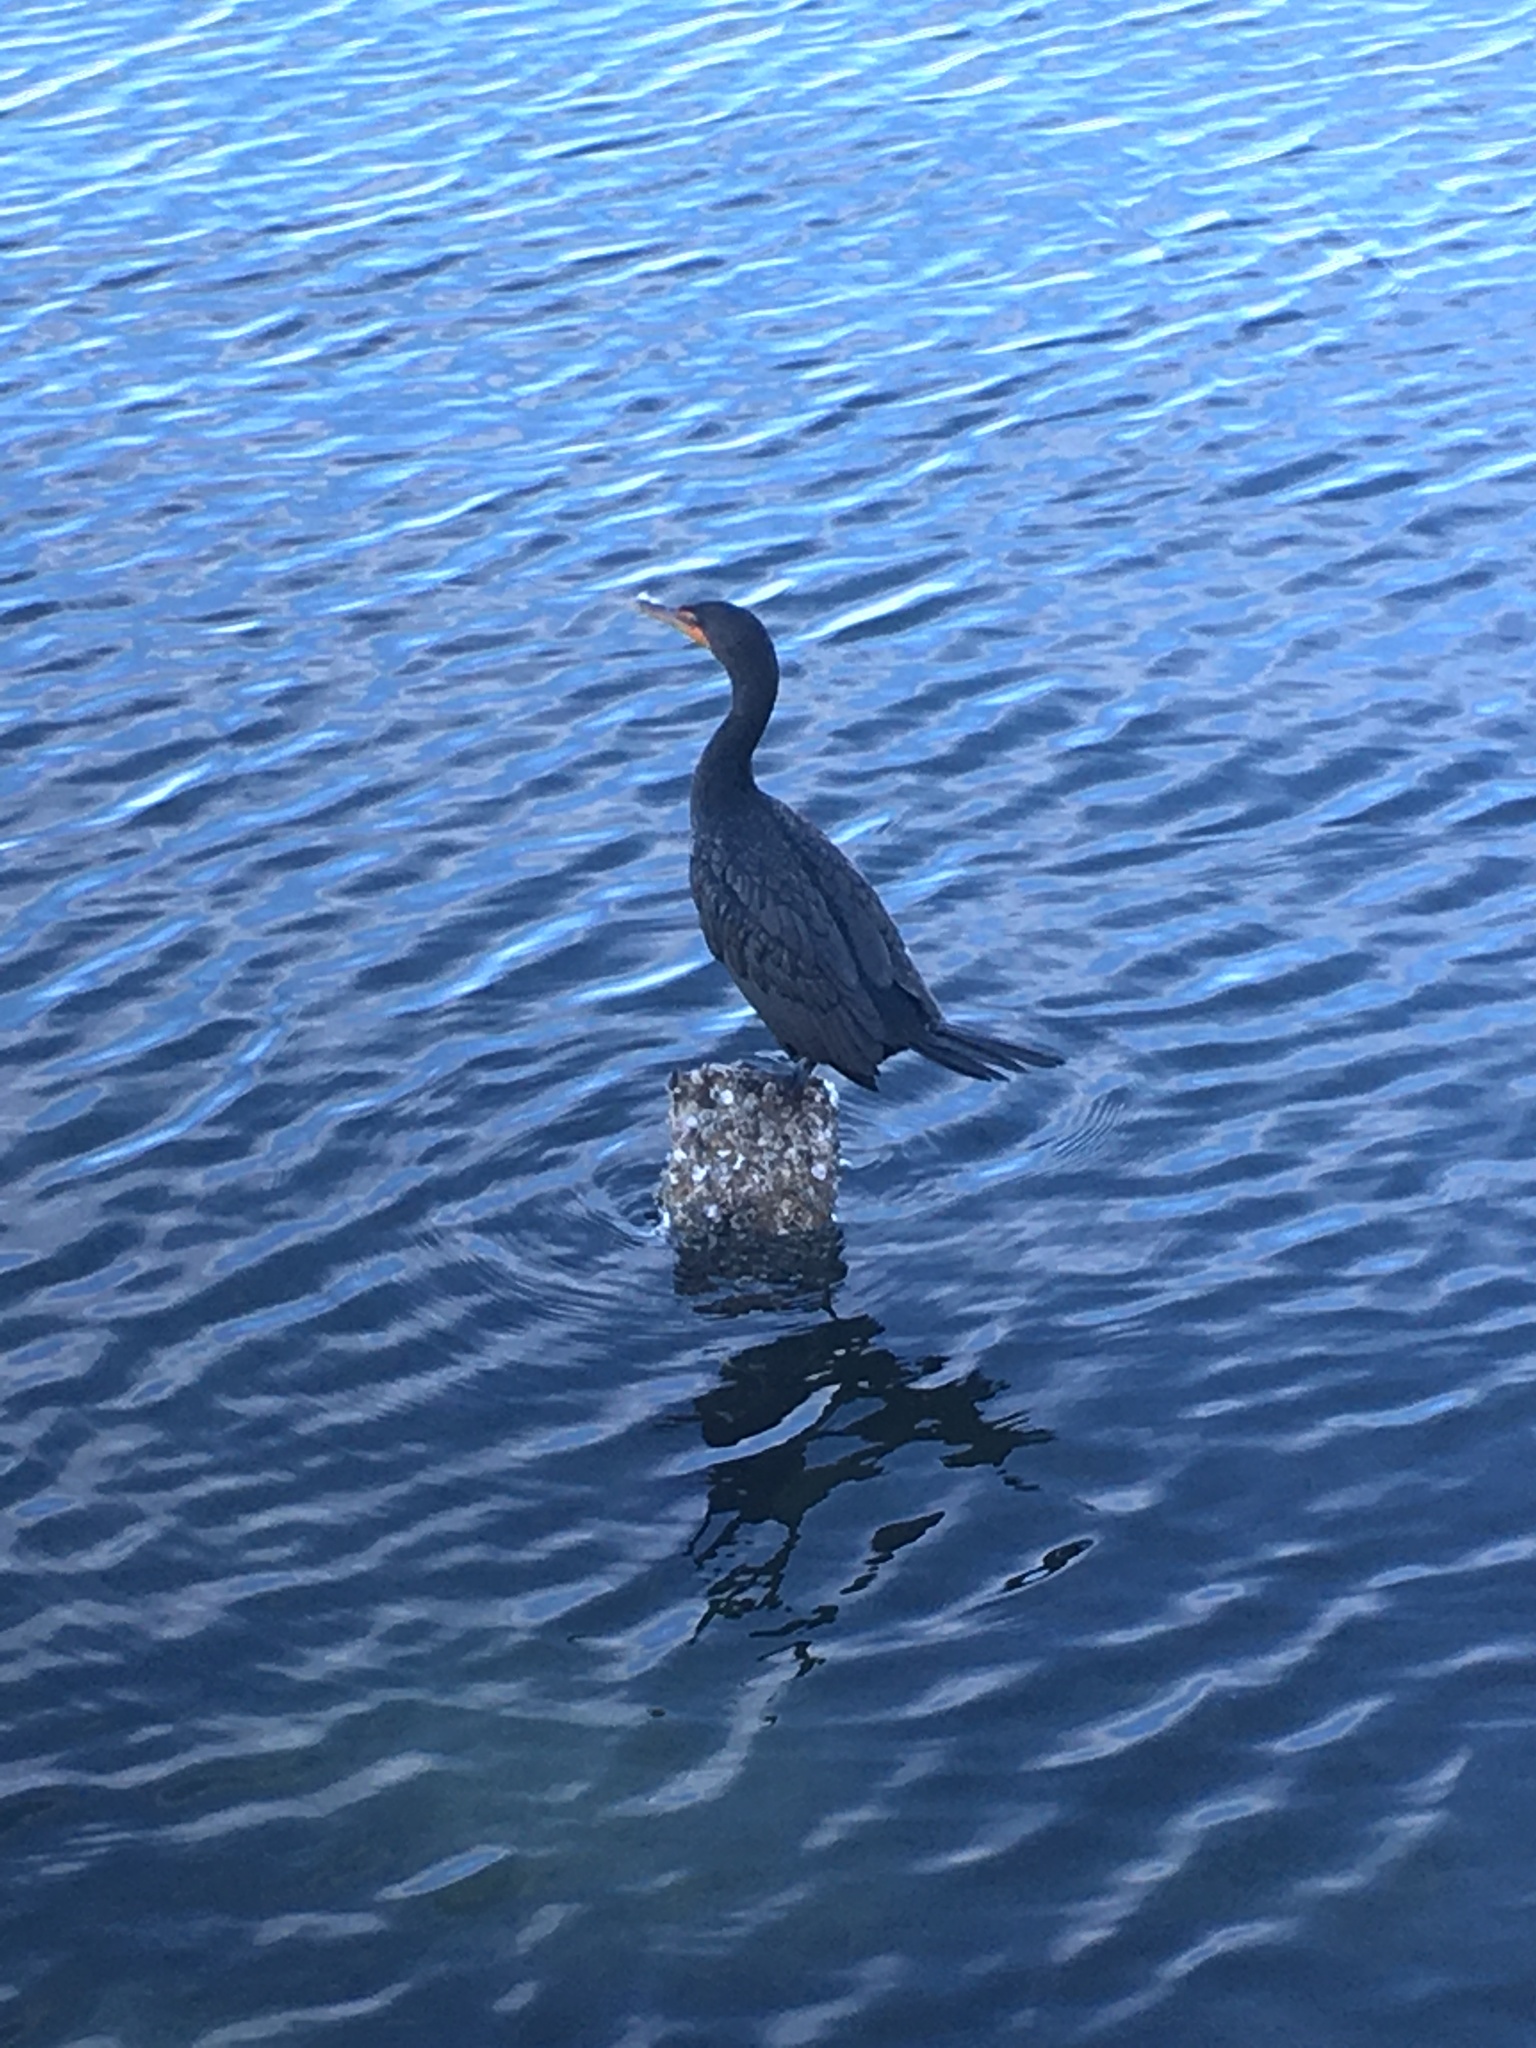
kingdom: Animalia
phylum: Chordata
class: Aves
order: Suliformes
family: Phalacrocoracidae
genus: Phalacrocorax
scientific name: Phalacrocorax auritus
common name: Double-crested cormorant
